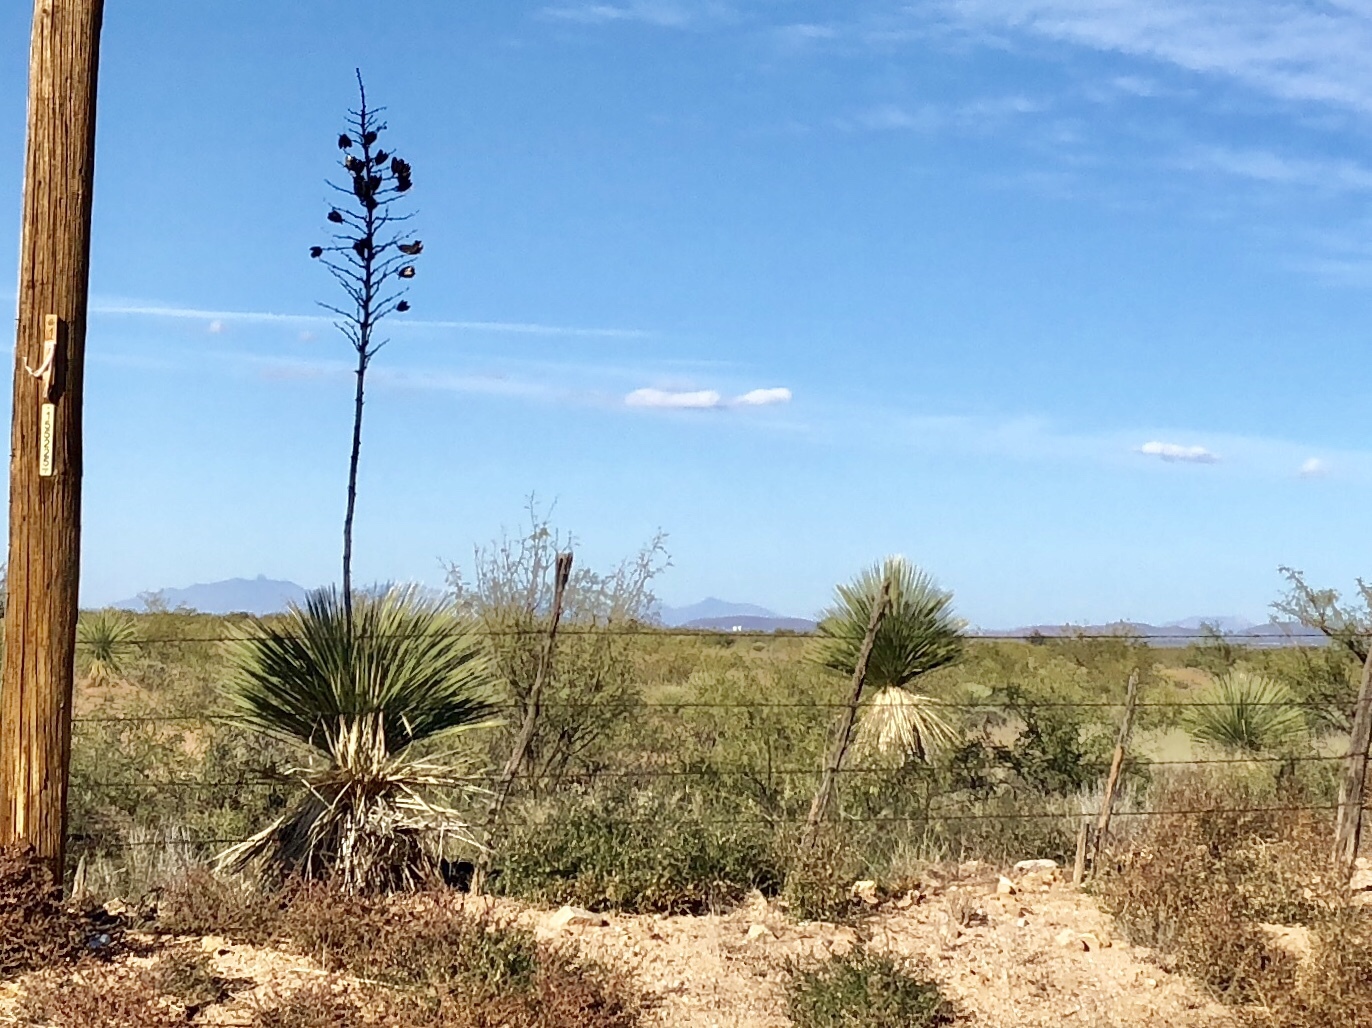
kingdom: Plantae
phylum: Tracheophyta
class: Liliopsida
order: Asparagales
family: Asparagaceae
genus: Yucca
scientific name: Yucca elata
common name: Palmella
